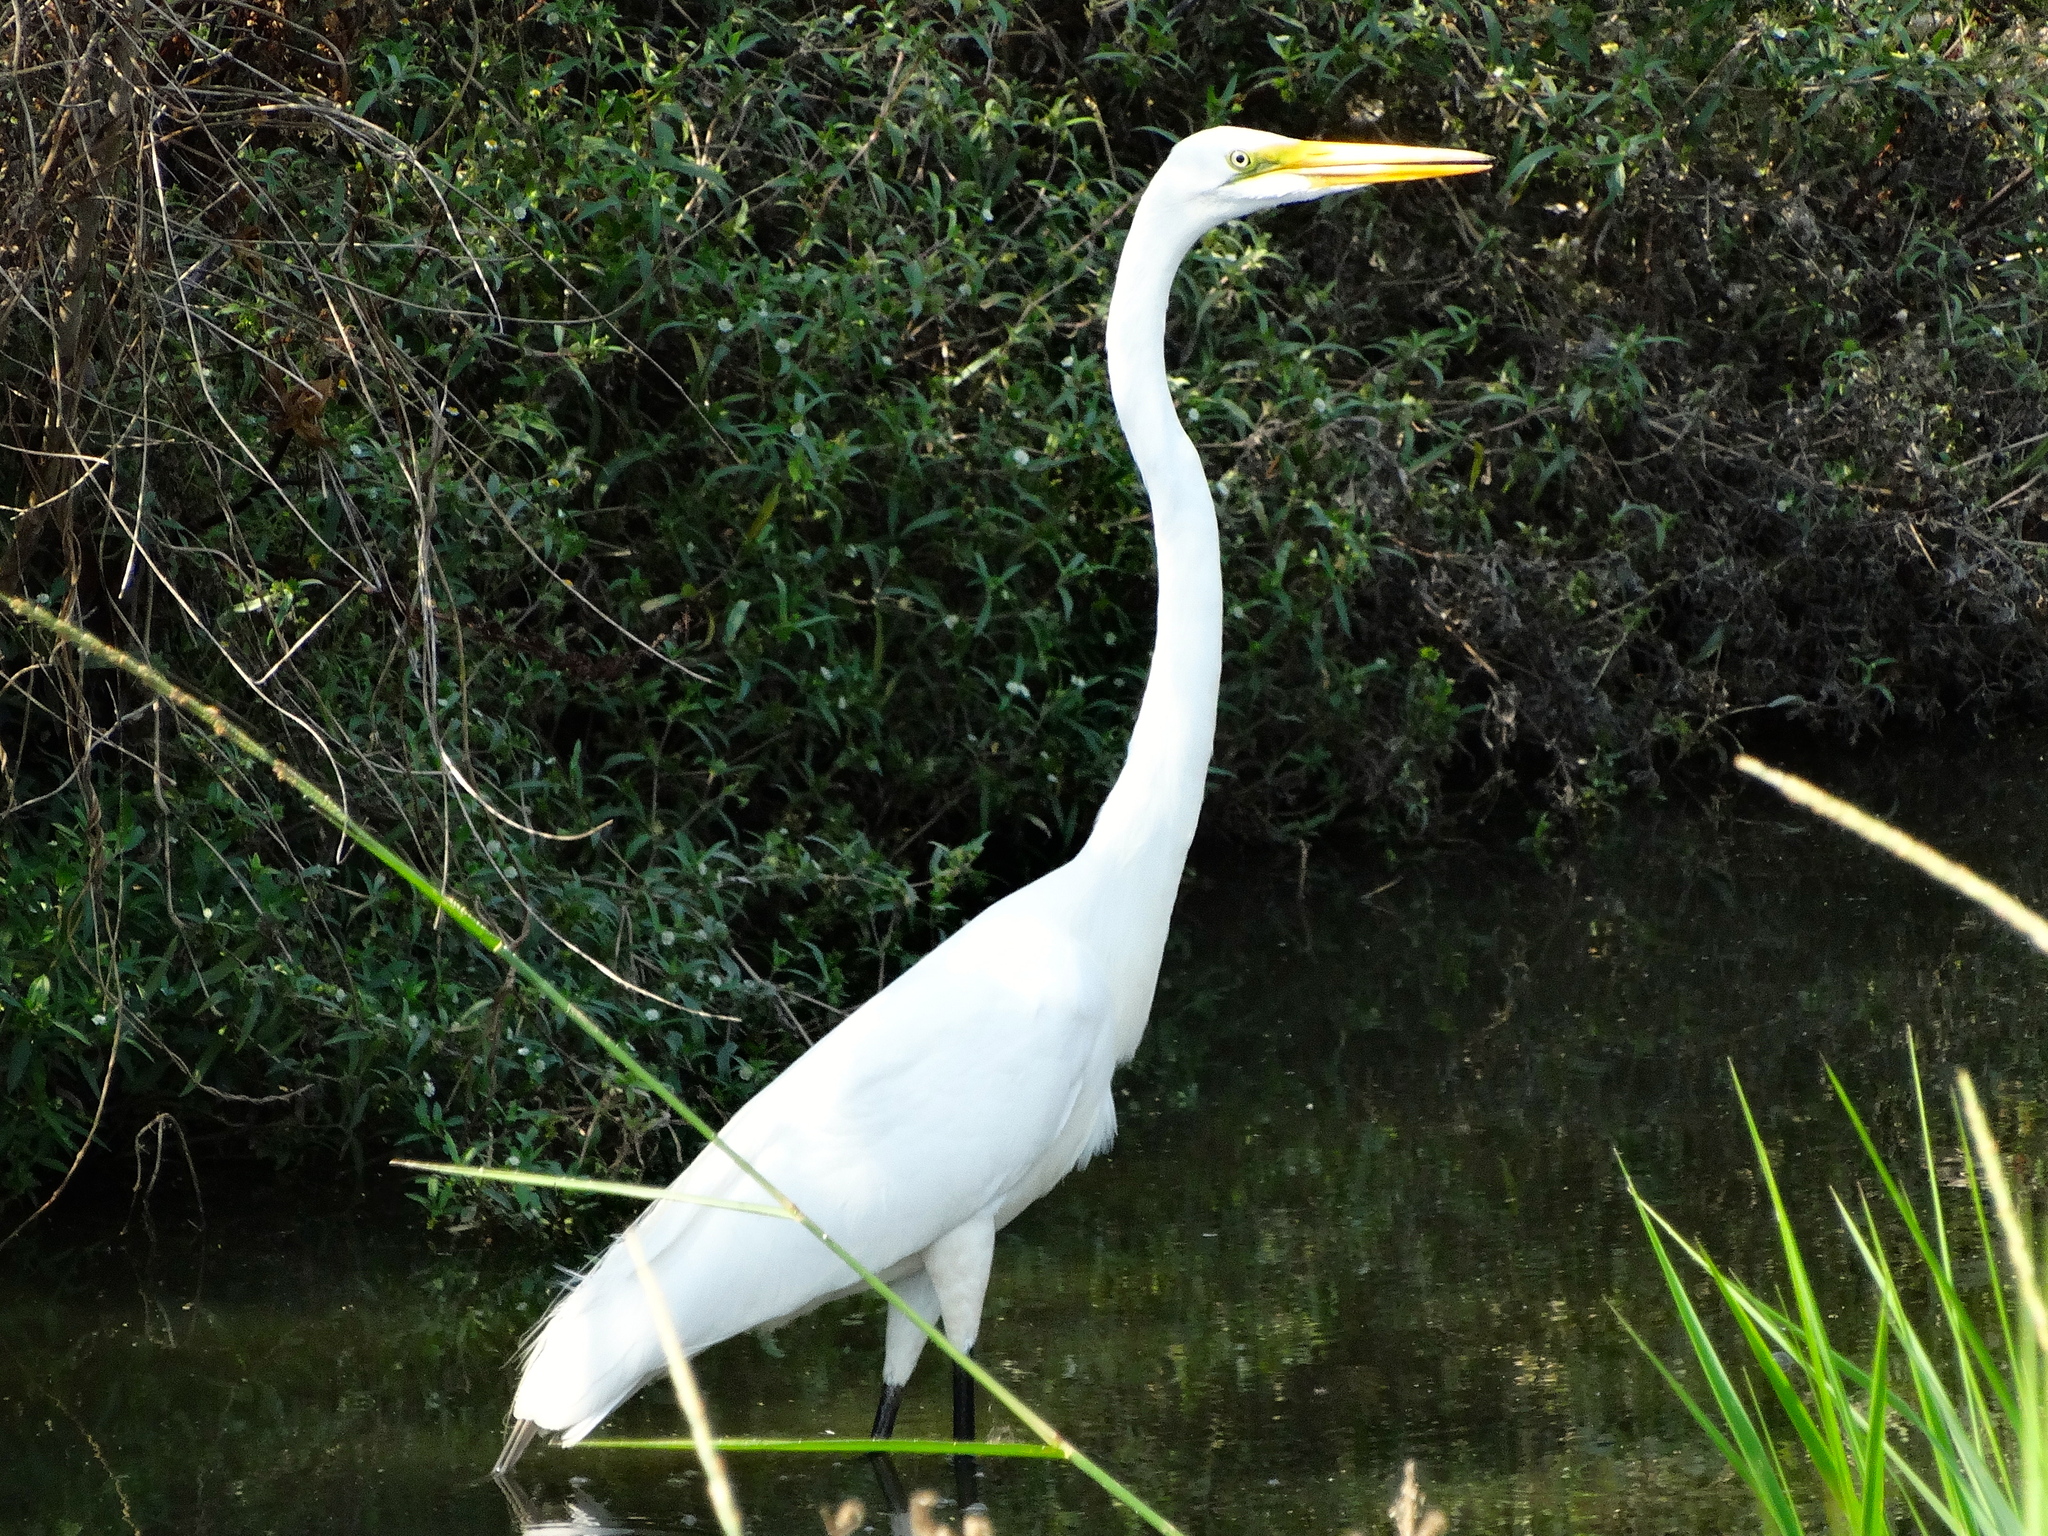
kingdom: Animalia
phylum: Chordata
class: Aves
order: Pelecaniformes
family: Ardeidae
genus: Ardea
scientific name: Ardea alba
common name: Great egret
